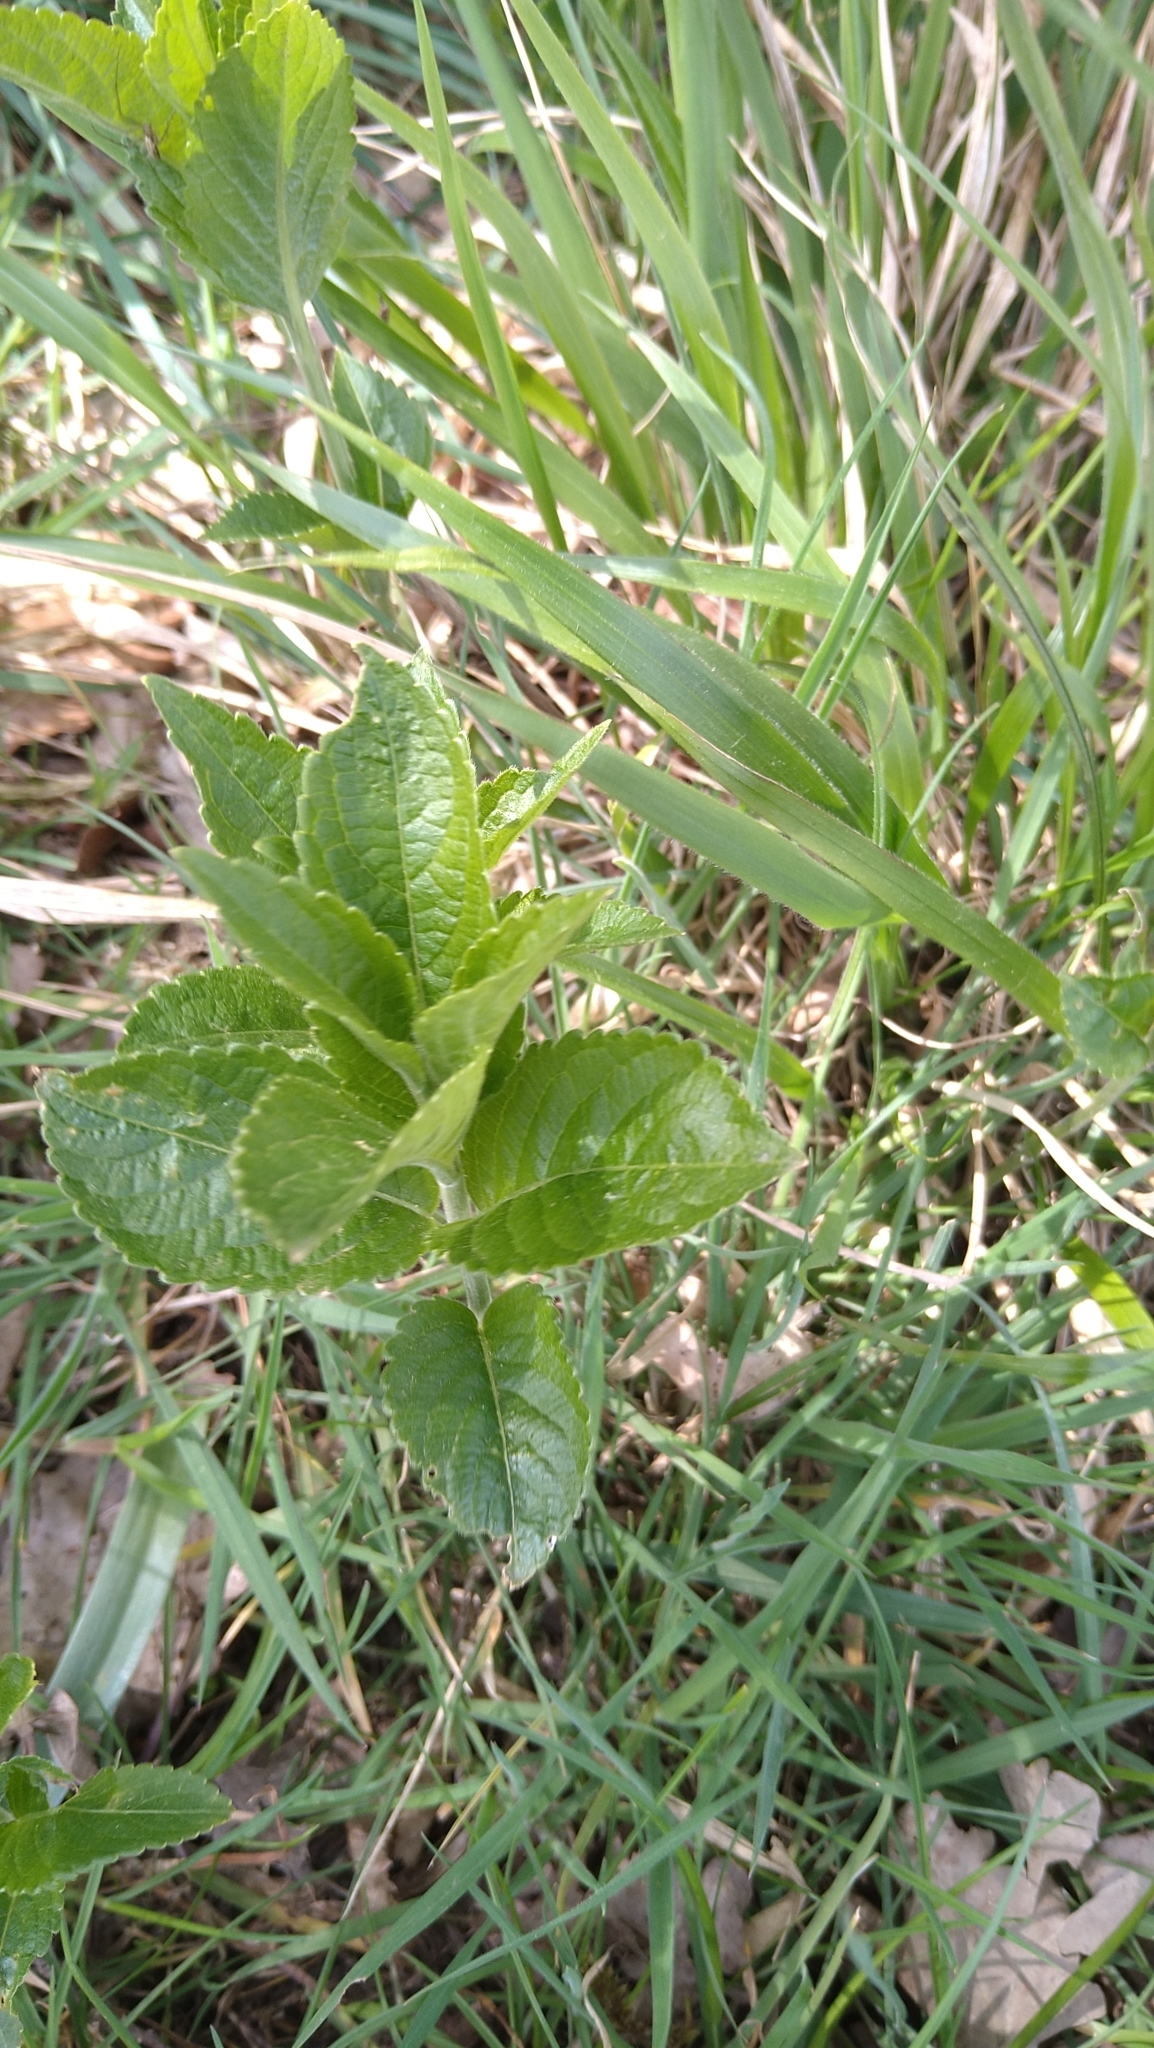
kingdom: Plantae
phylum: Tracheophyta
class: Magnoliopsida
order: Malpighiales
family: Euphorbiaceae
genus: Mercurialis
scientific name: Mercurialis perennis
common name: Dog mercury
